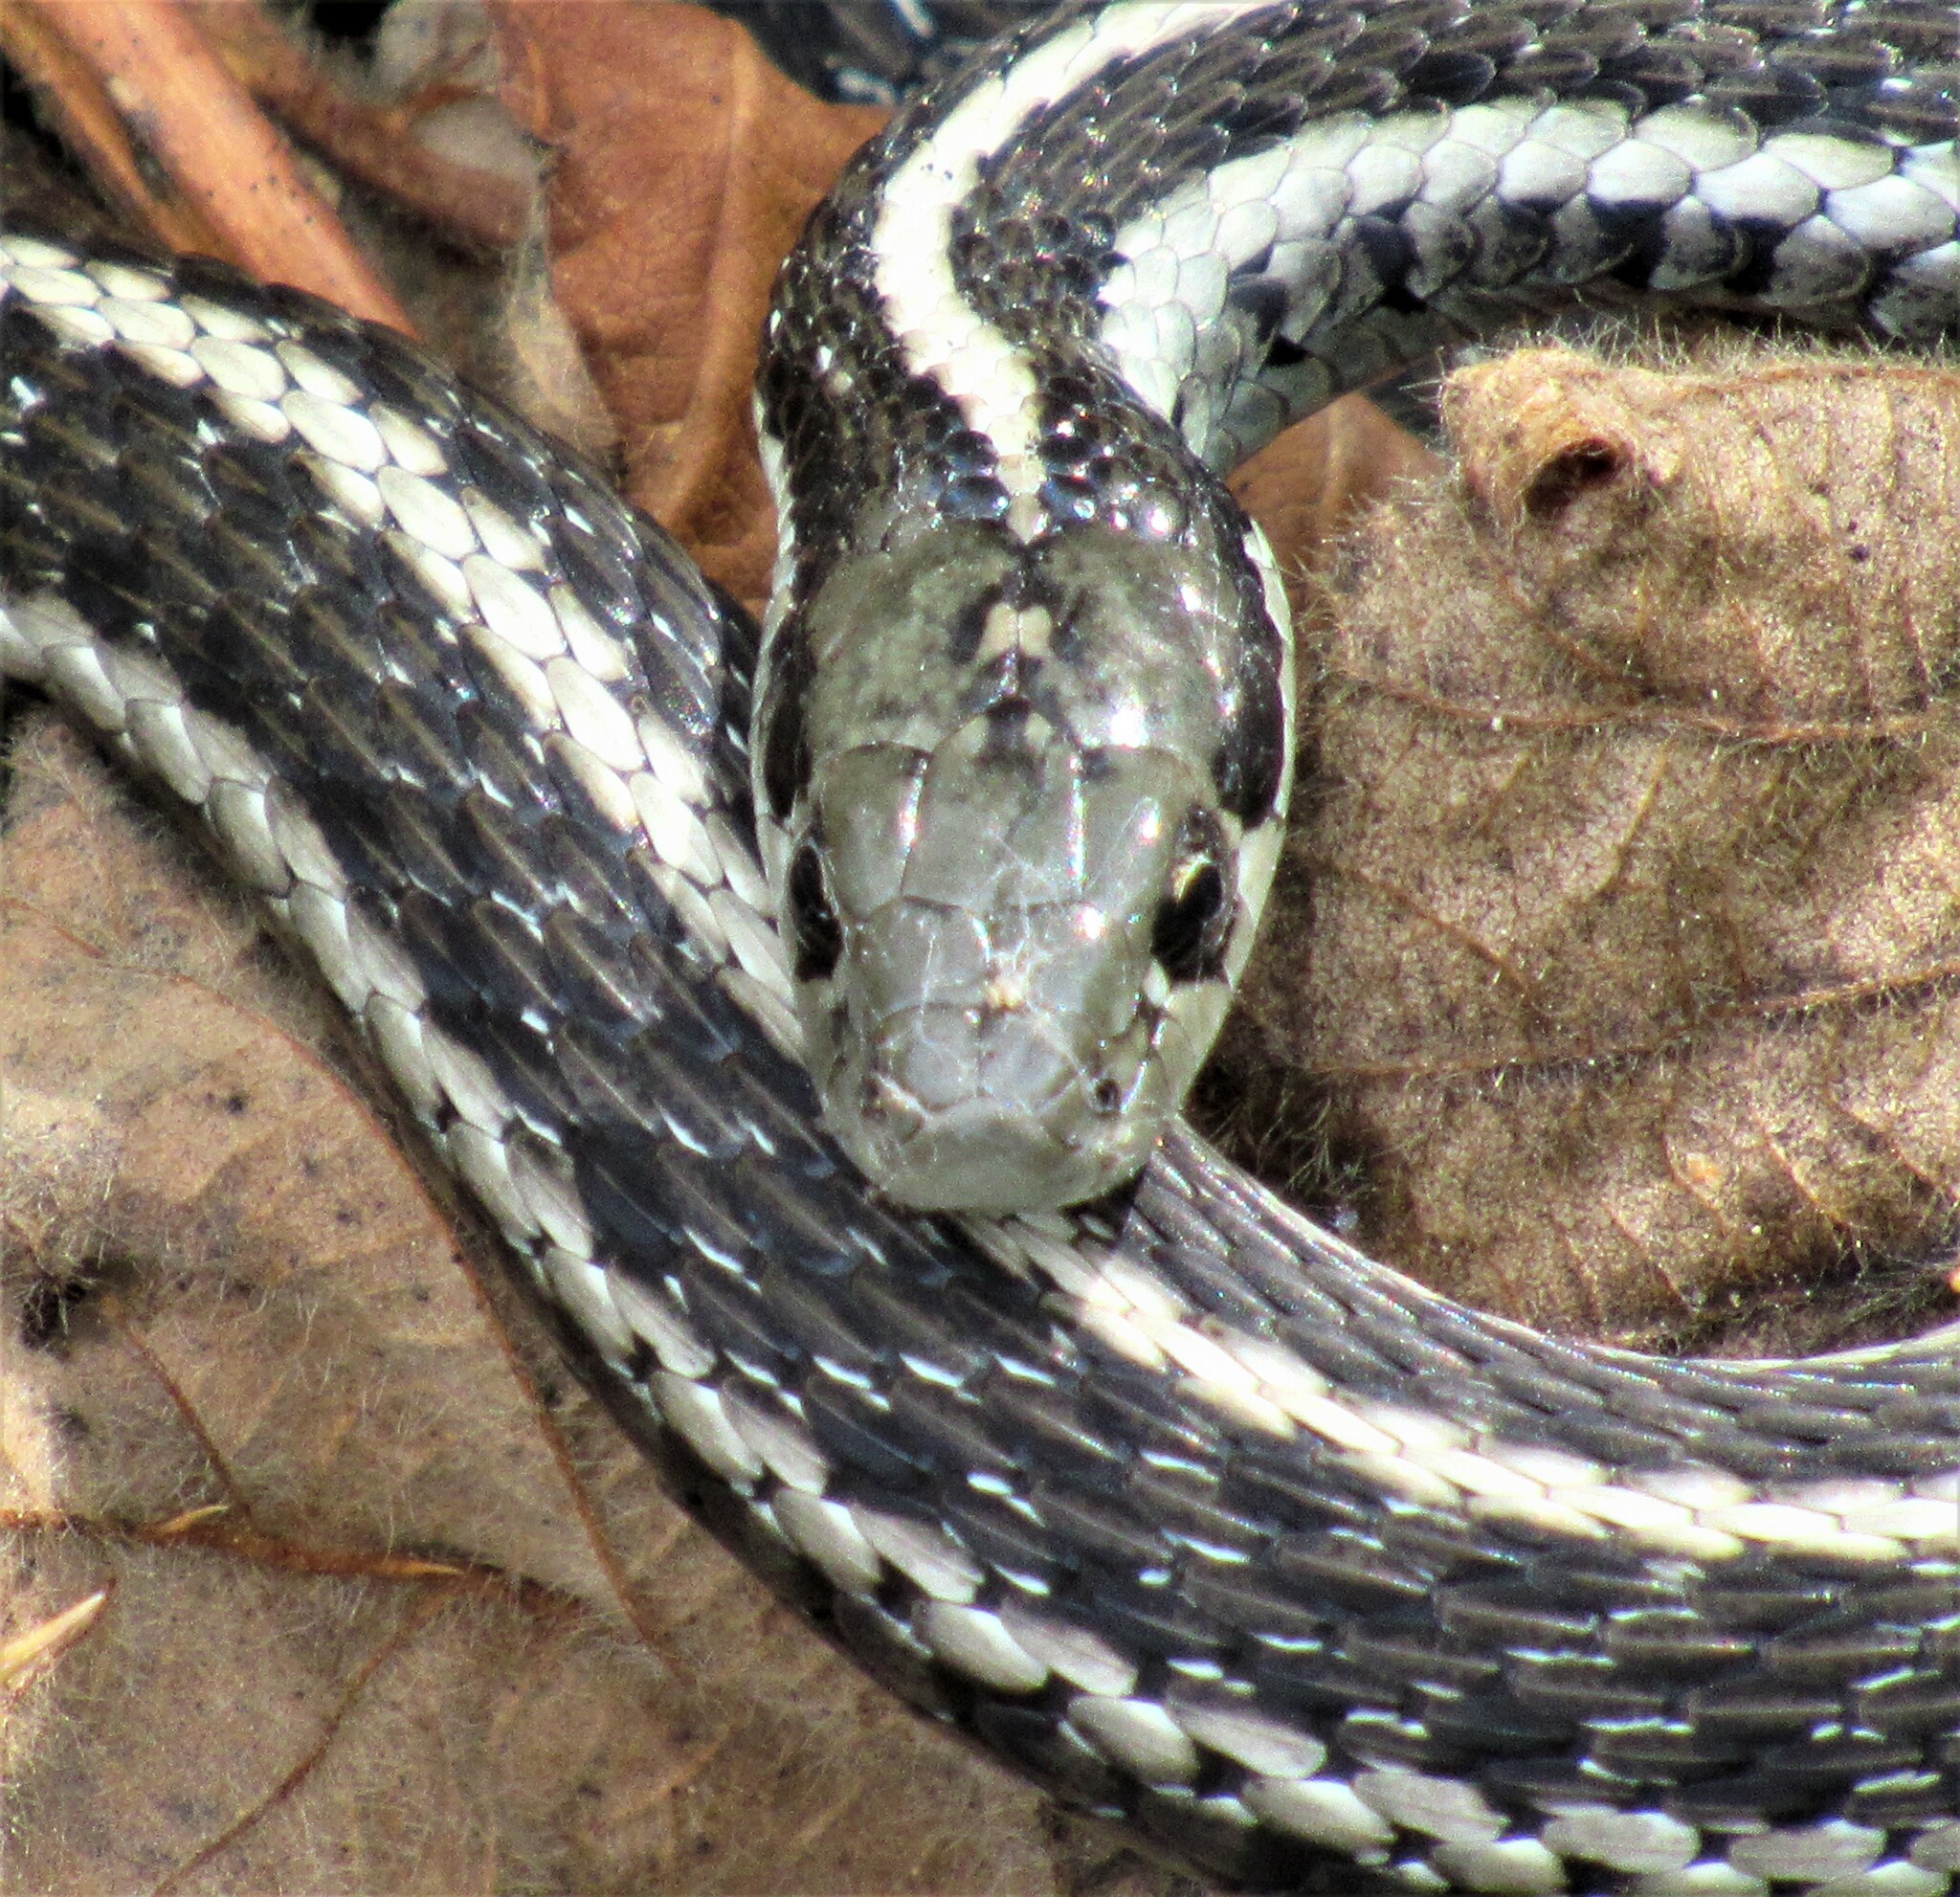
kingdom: Animalia
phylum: Chordata
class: Squamata
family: Colubridae
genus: Thamnophis
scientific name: Thamnophis ordinoides
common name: Northwestern garter snake
